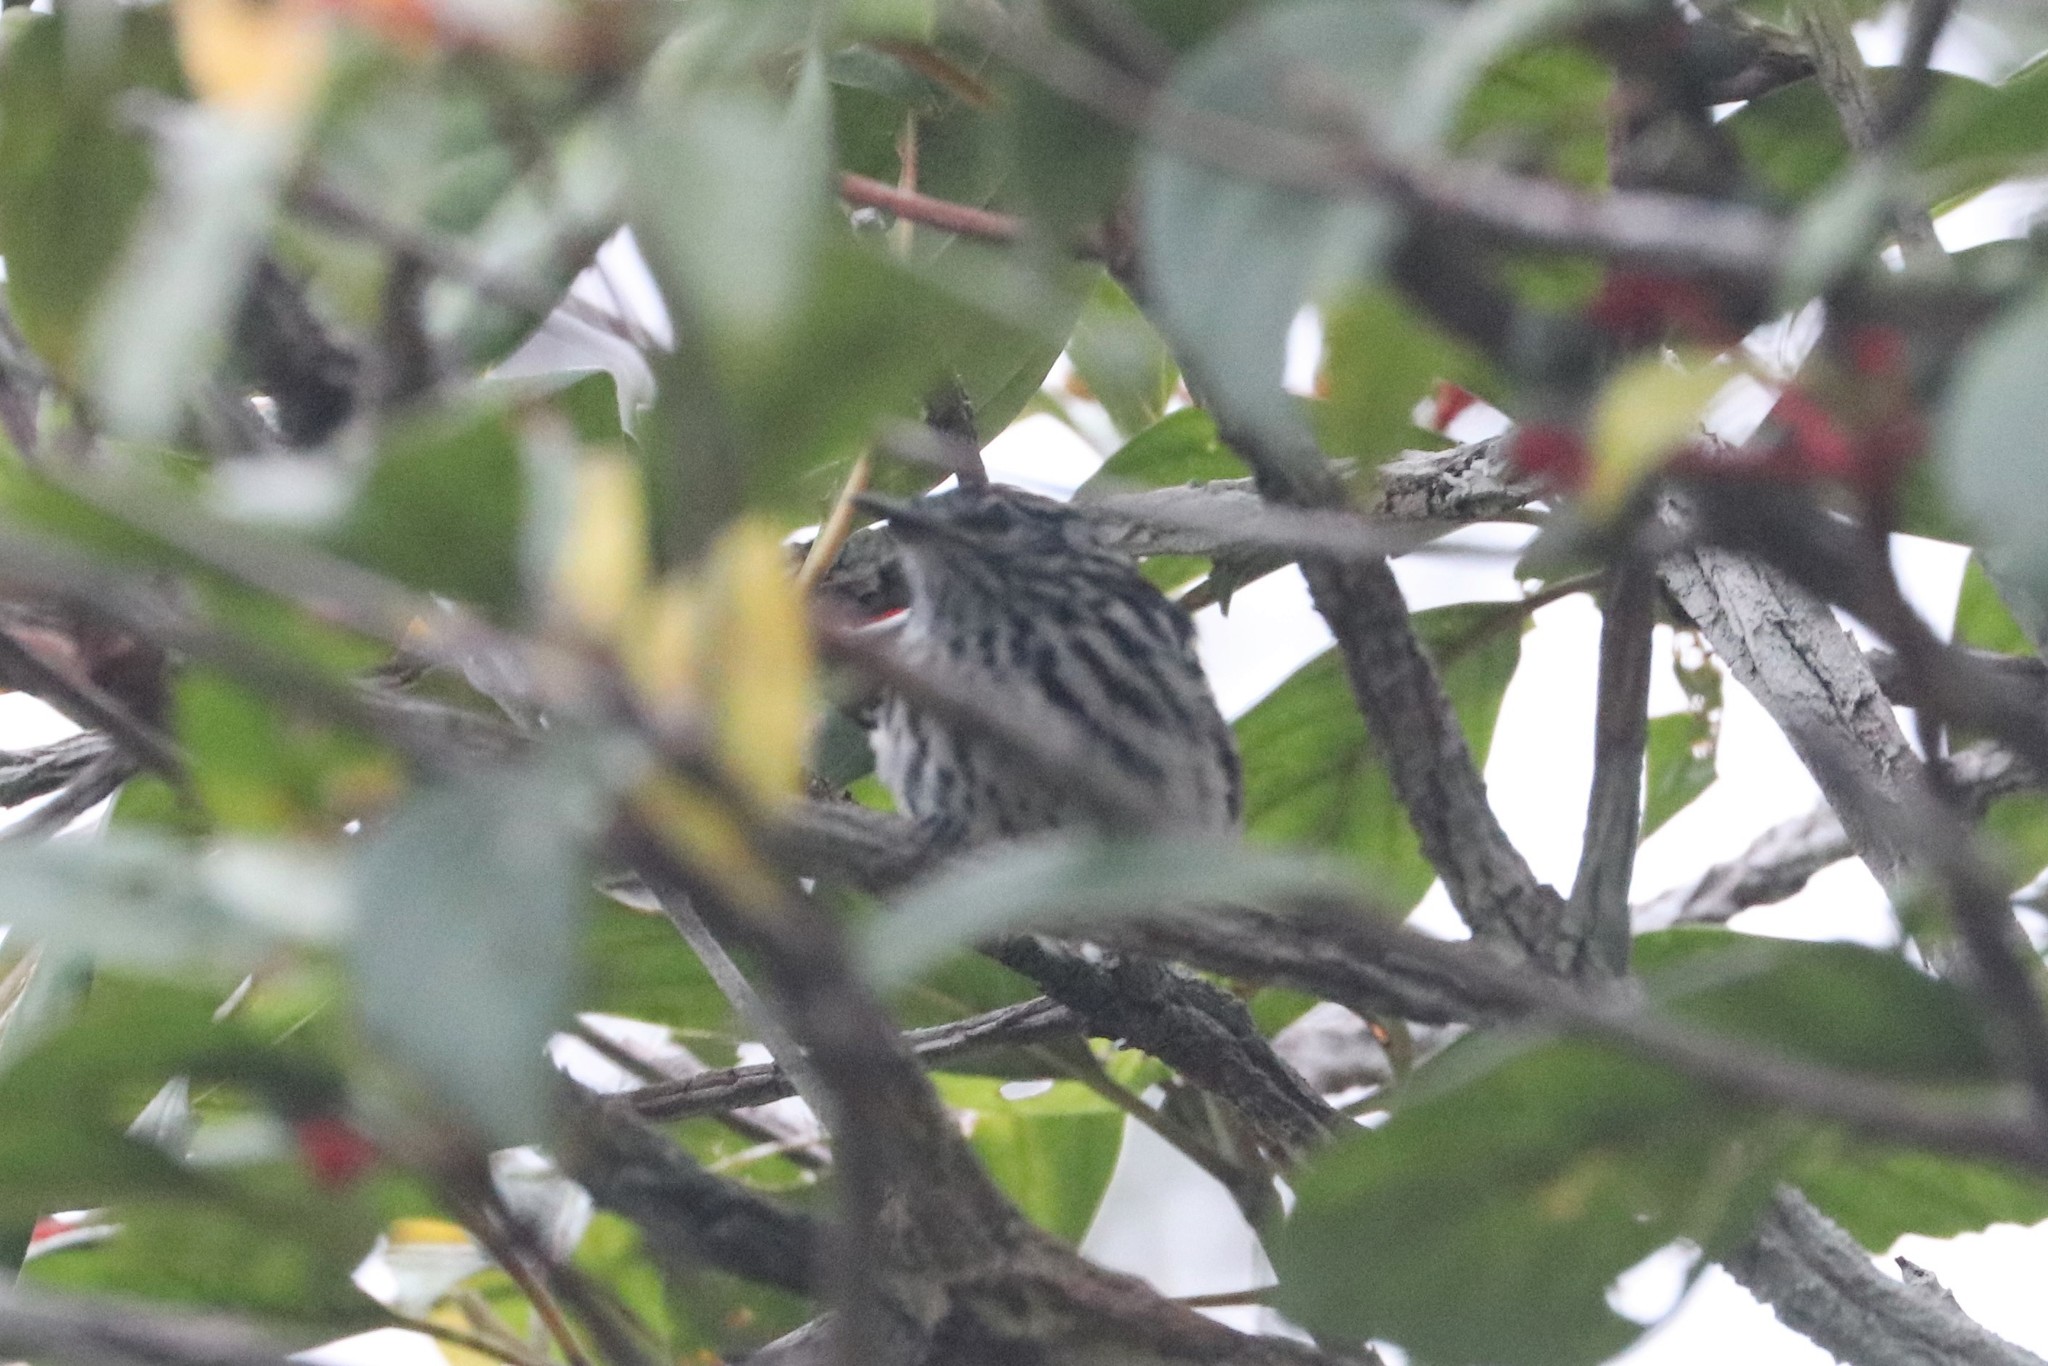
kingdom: Animalia
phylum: Chordata
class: Aves
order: Passeriformes
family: Thamnophilidae
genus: Myrmotherula
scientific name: Myrmotherula cherriei
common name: Cherrie's antwren
